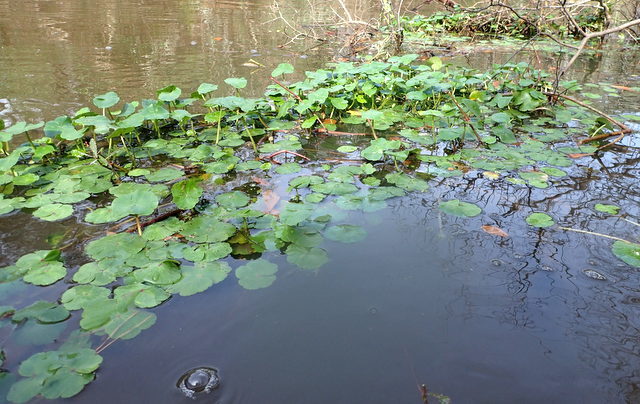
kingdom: Plantae
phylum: Tracheophyta
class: Magnoliopsida
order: Apiales
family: Araliaceae
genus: Hydrocotyle
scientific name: Hydrocotyle ranunculoides
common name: Floating pennywort
